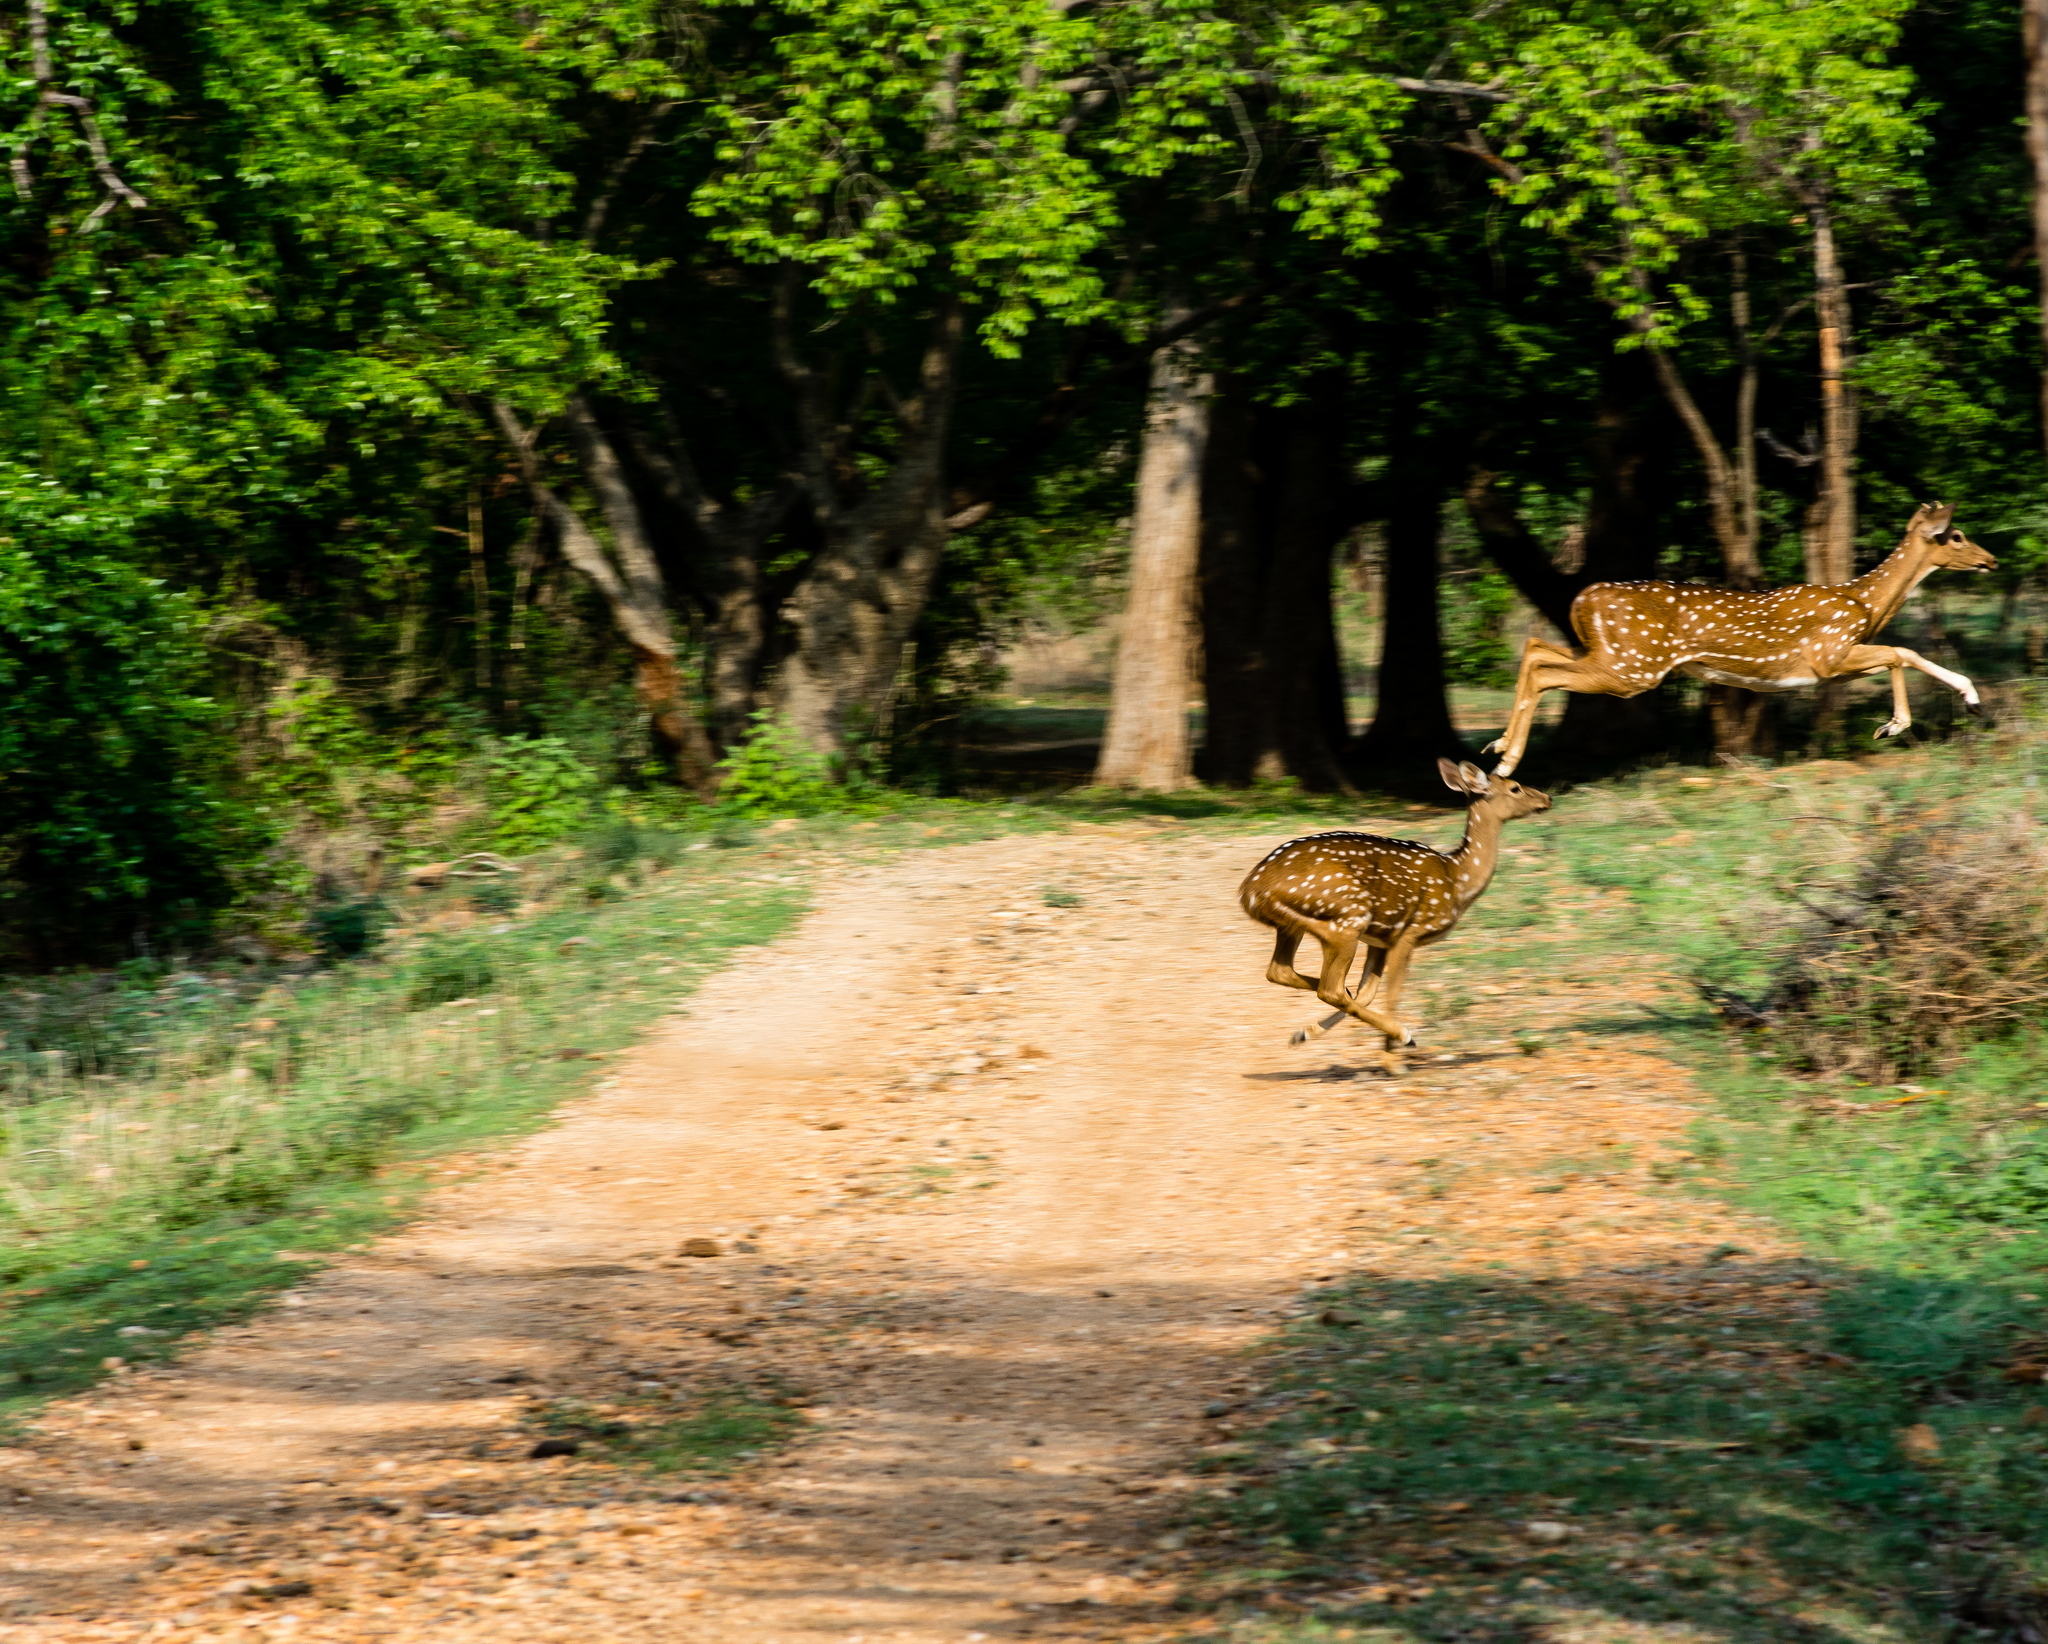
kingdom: Animalia
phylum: Chordata
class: Mammalia
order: Artiodactyla
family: Cervidae
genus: Axis
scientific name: Axis axis
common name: Chital
